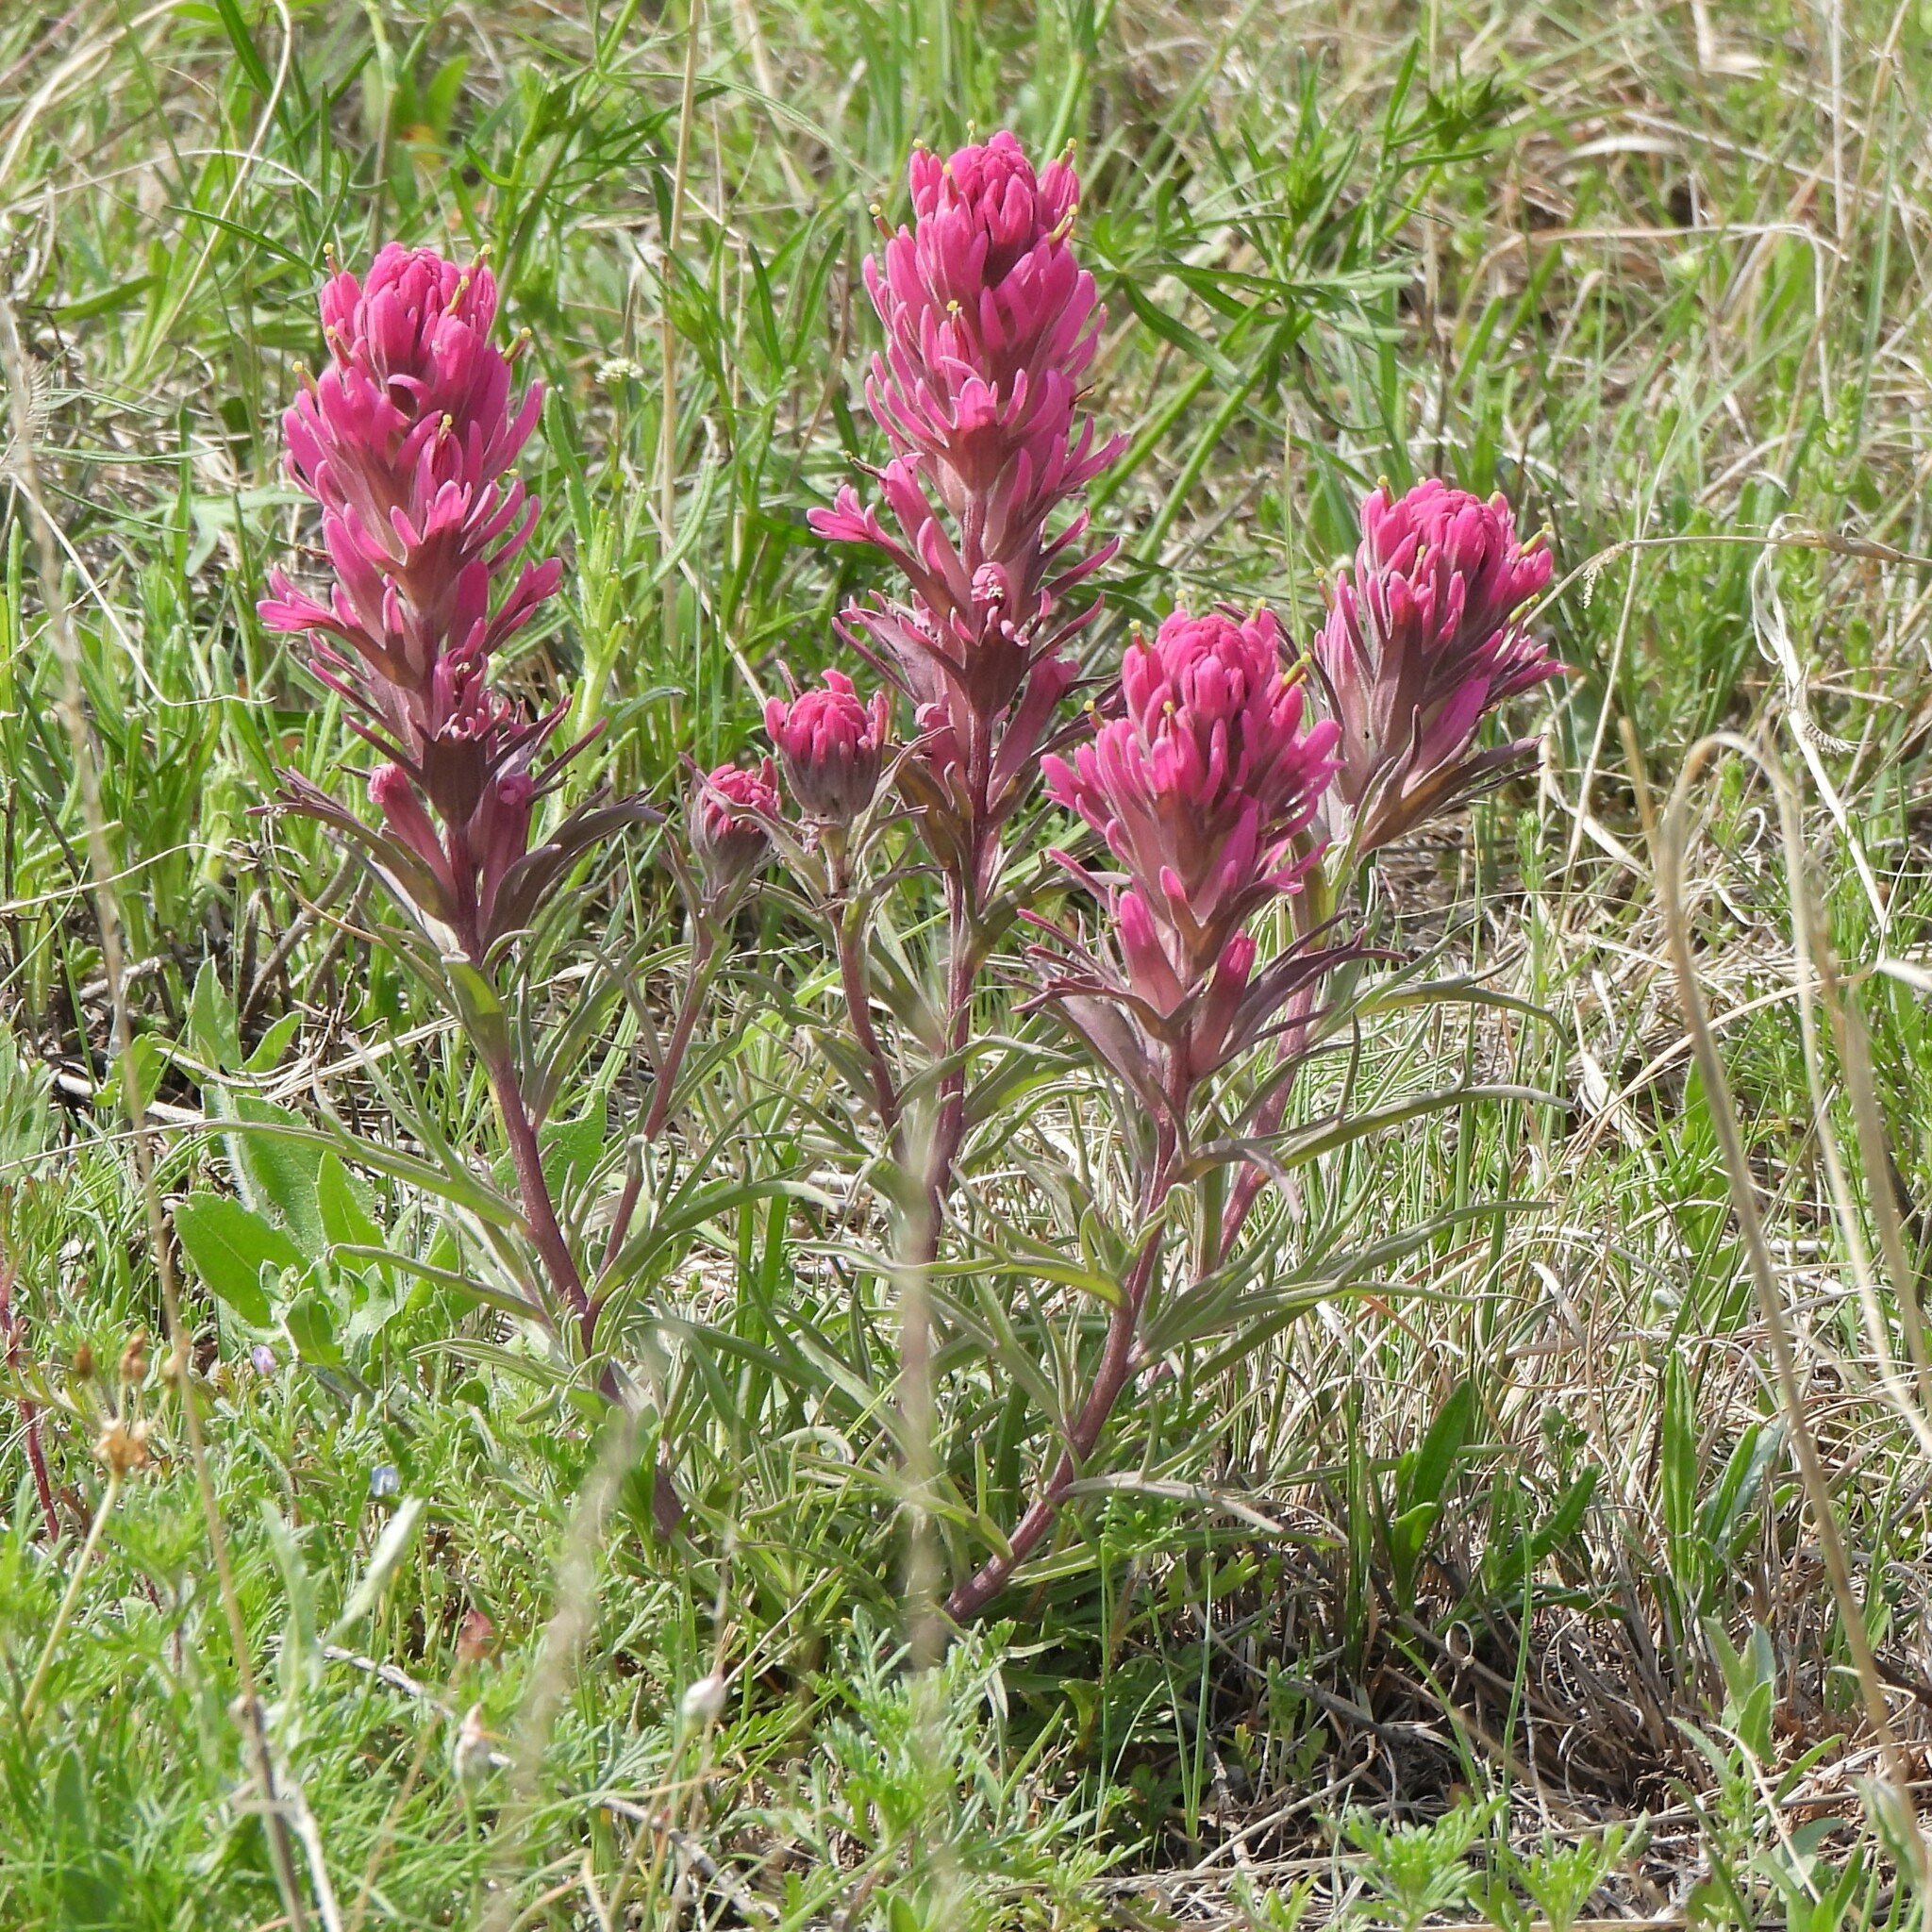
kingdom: Plantae
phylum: Tracheophyta
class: Magnoliopsida
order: Lamiales
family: Orobanchaceae
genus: Castilleja
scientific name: Castilleja purpurea
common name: Plains paintbrush
